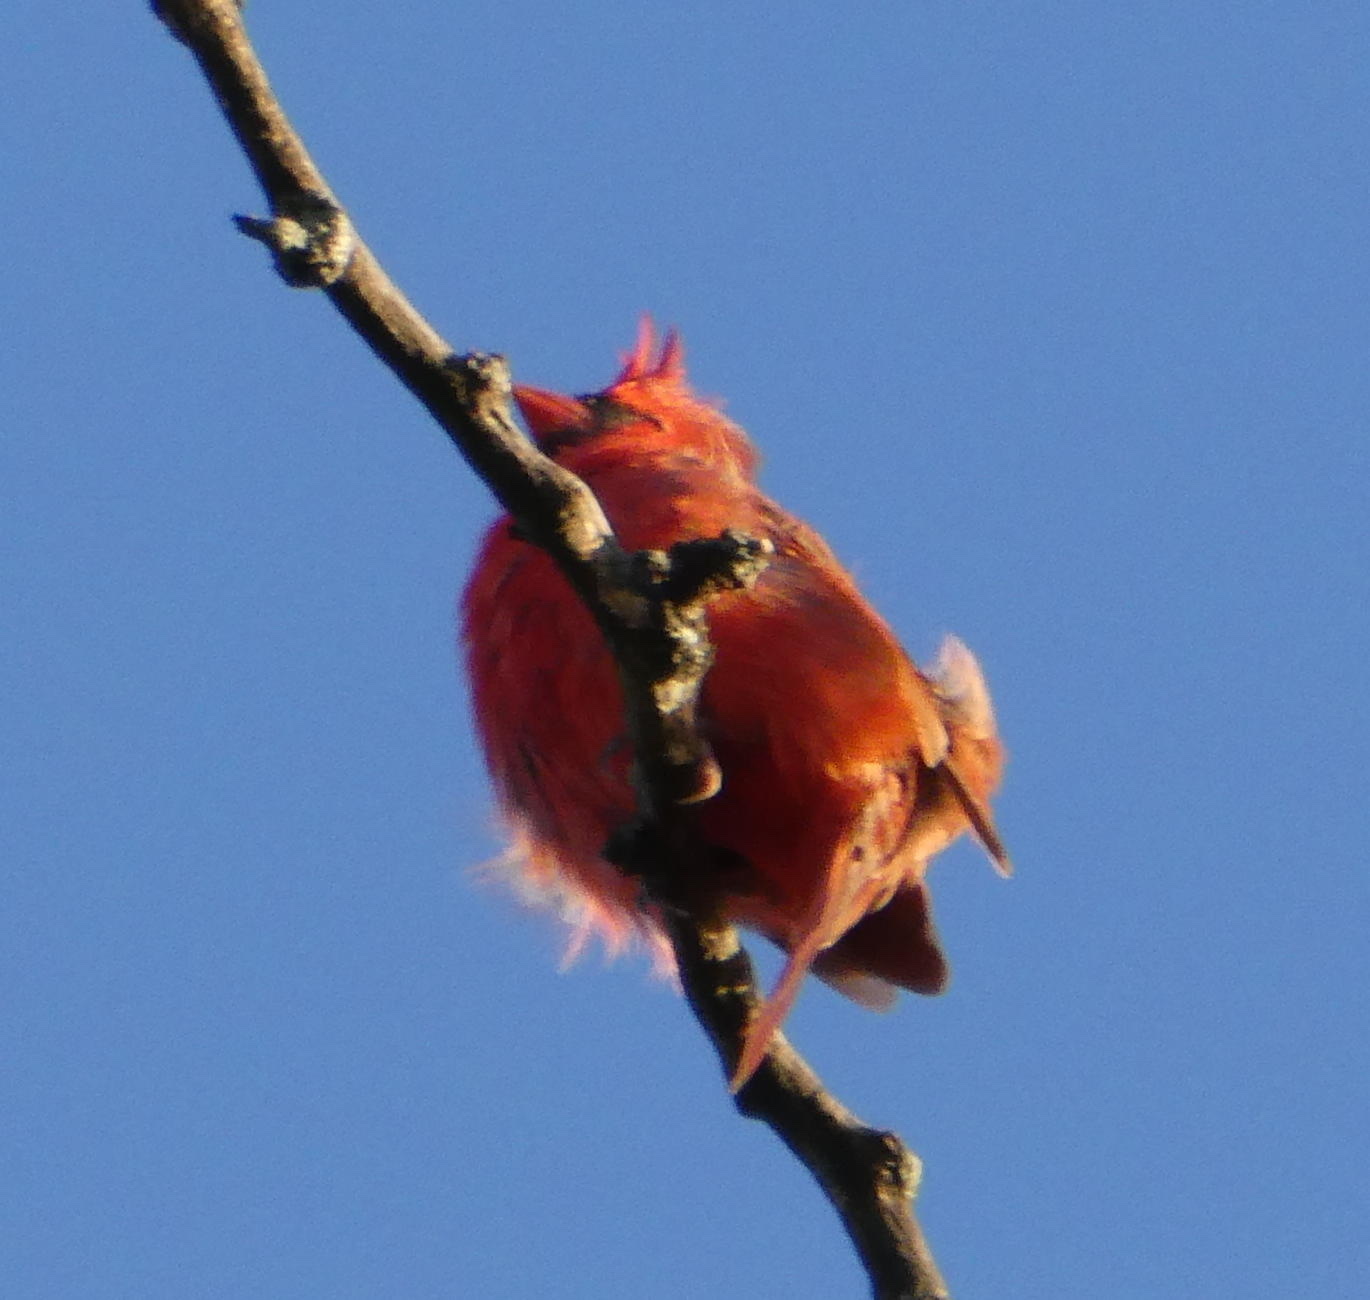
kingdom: Animalia
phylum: Chordata
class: Aves
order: Passeriformes
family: Cardinalidae
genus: Cardinalis
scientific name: Cardinalis cardinalis
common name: Northern cardinal
